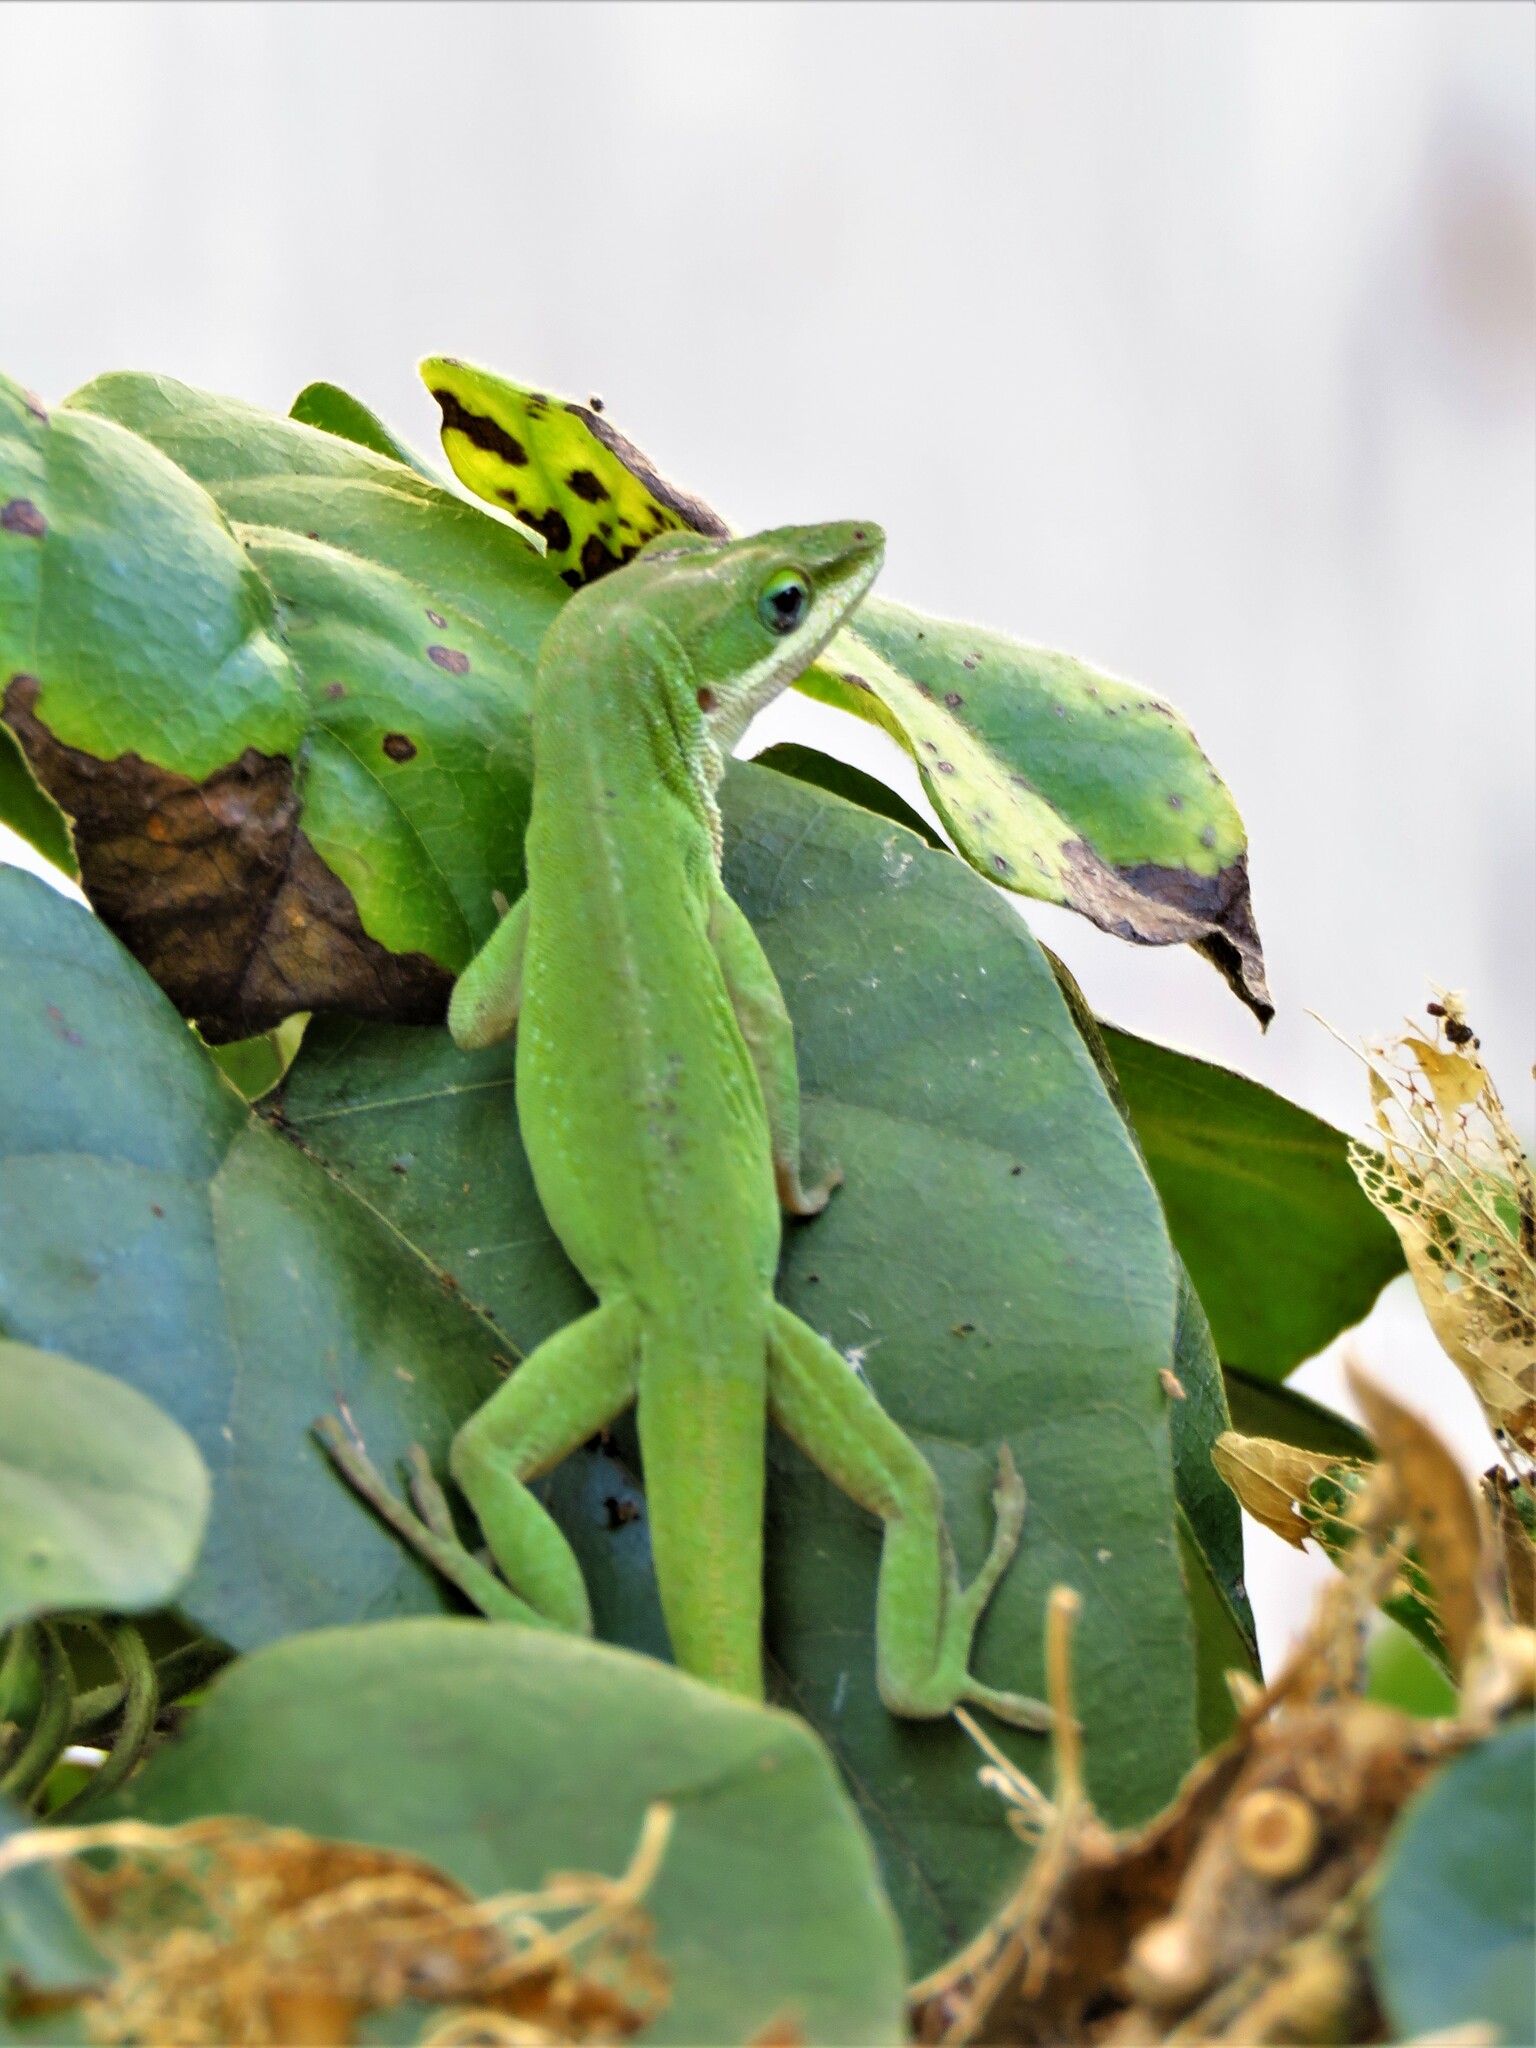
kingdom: Animalia
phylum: Chordata
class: Squamata
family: Dactyloidae
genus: Anolis
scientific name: Anolis carolinensis
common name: Green anole
